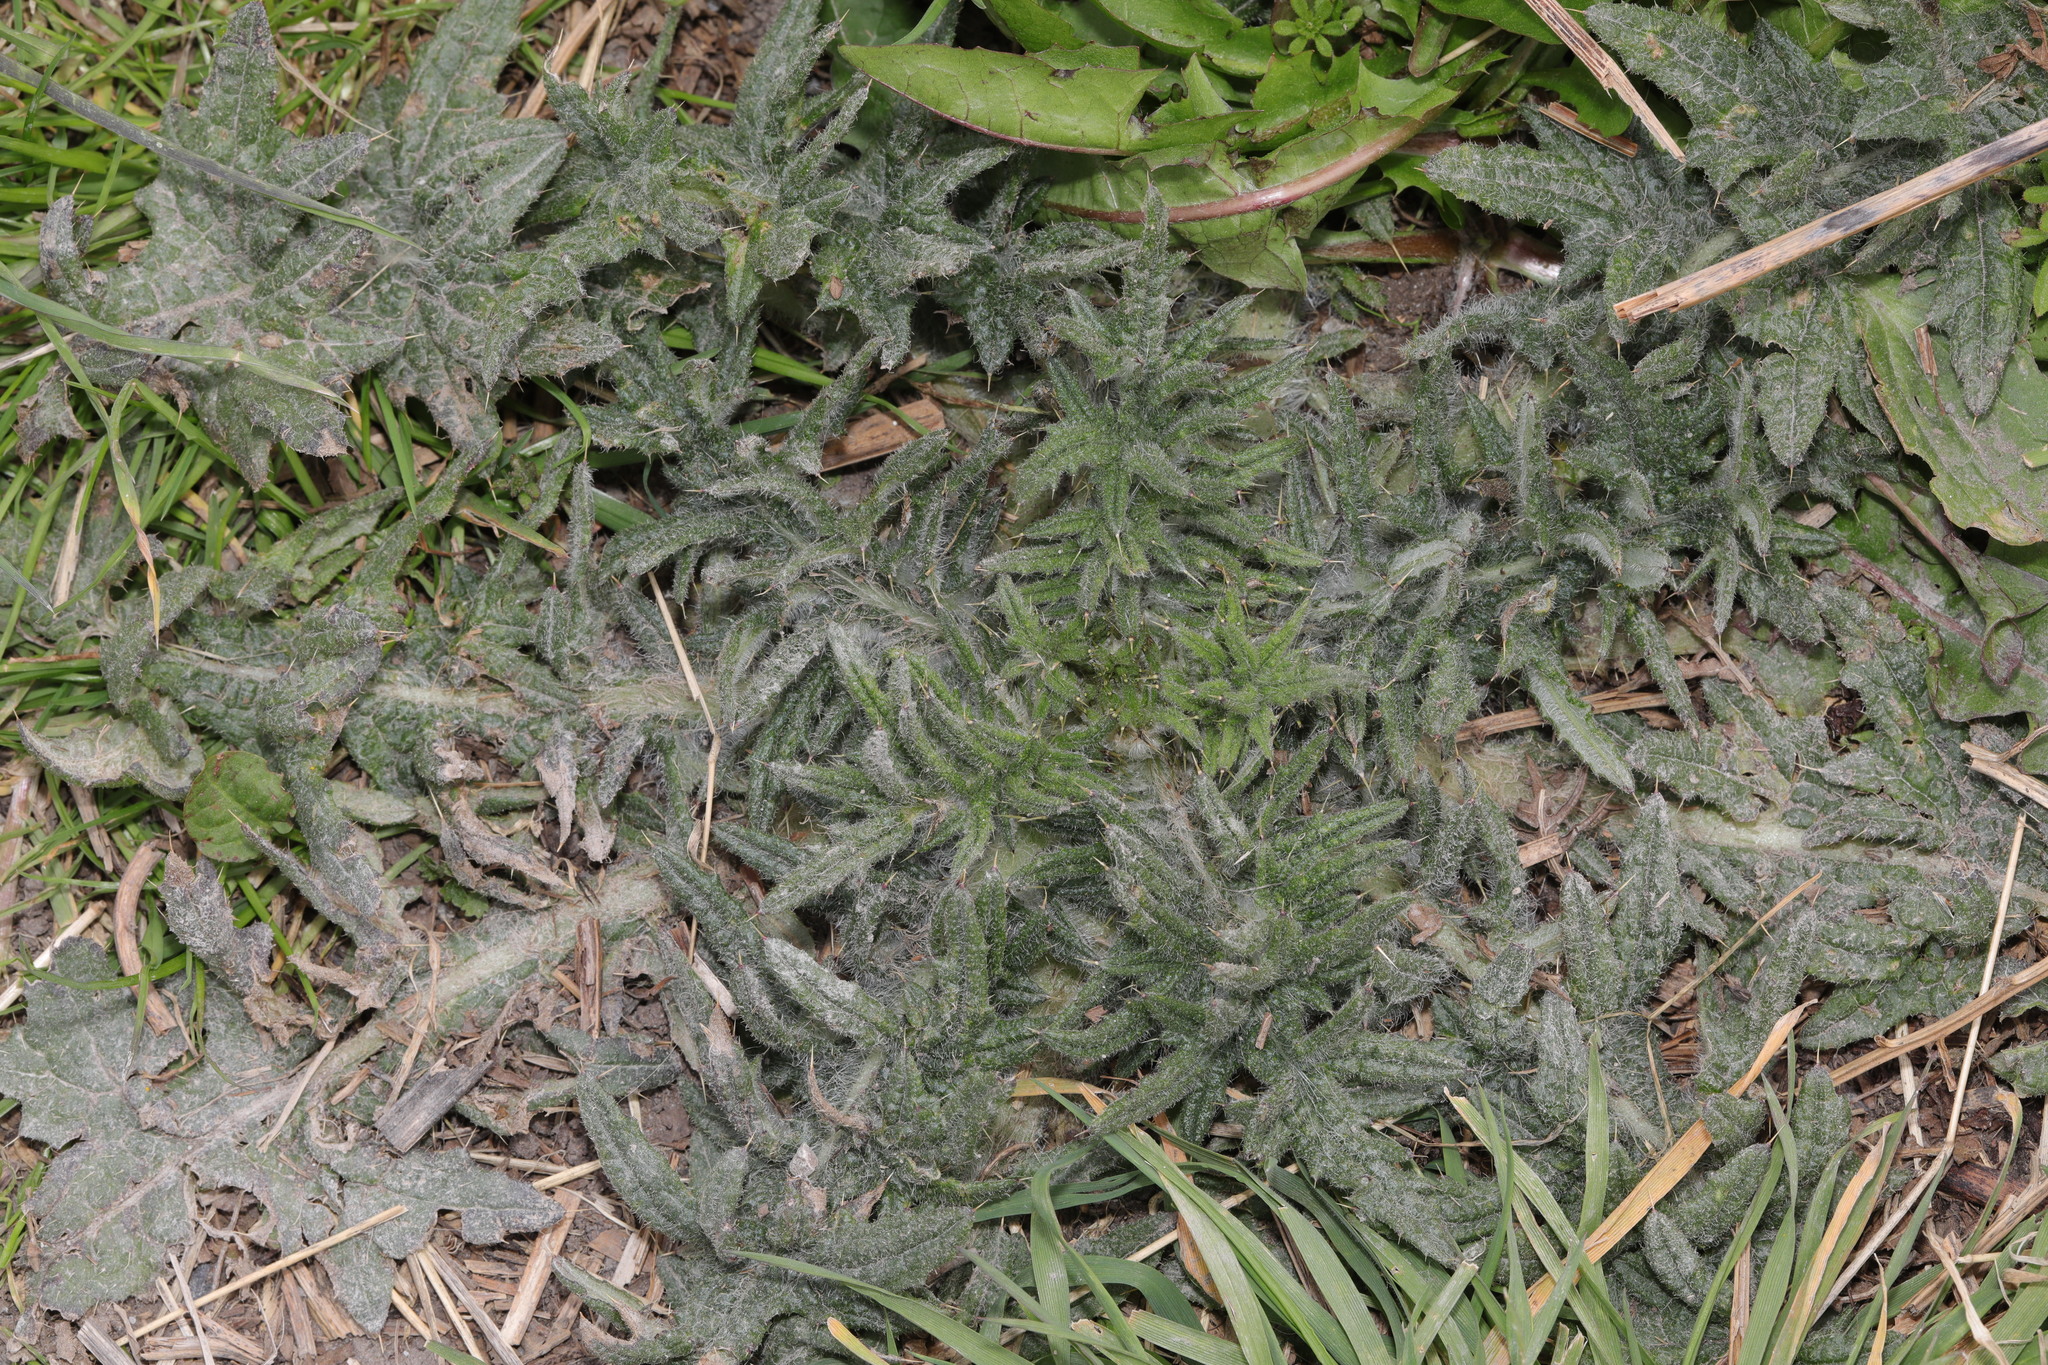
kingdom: Plantae
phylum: Tracheophyta
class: Magnoliopsida
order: Asterales
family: Asteraceae
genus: Cirsium
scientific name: Cirsium vulgare
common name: Bull thistle
